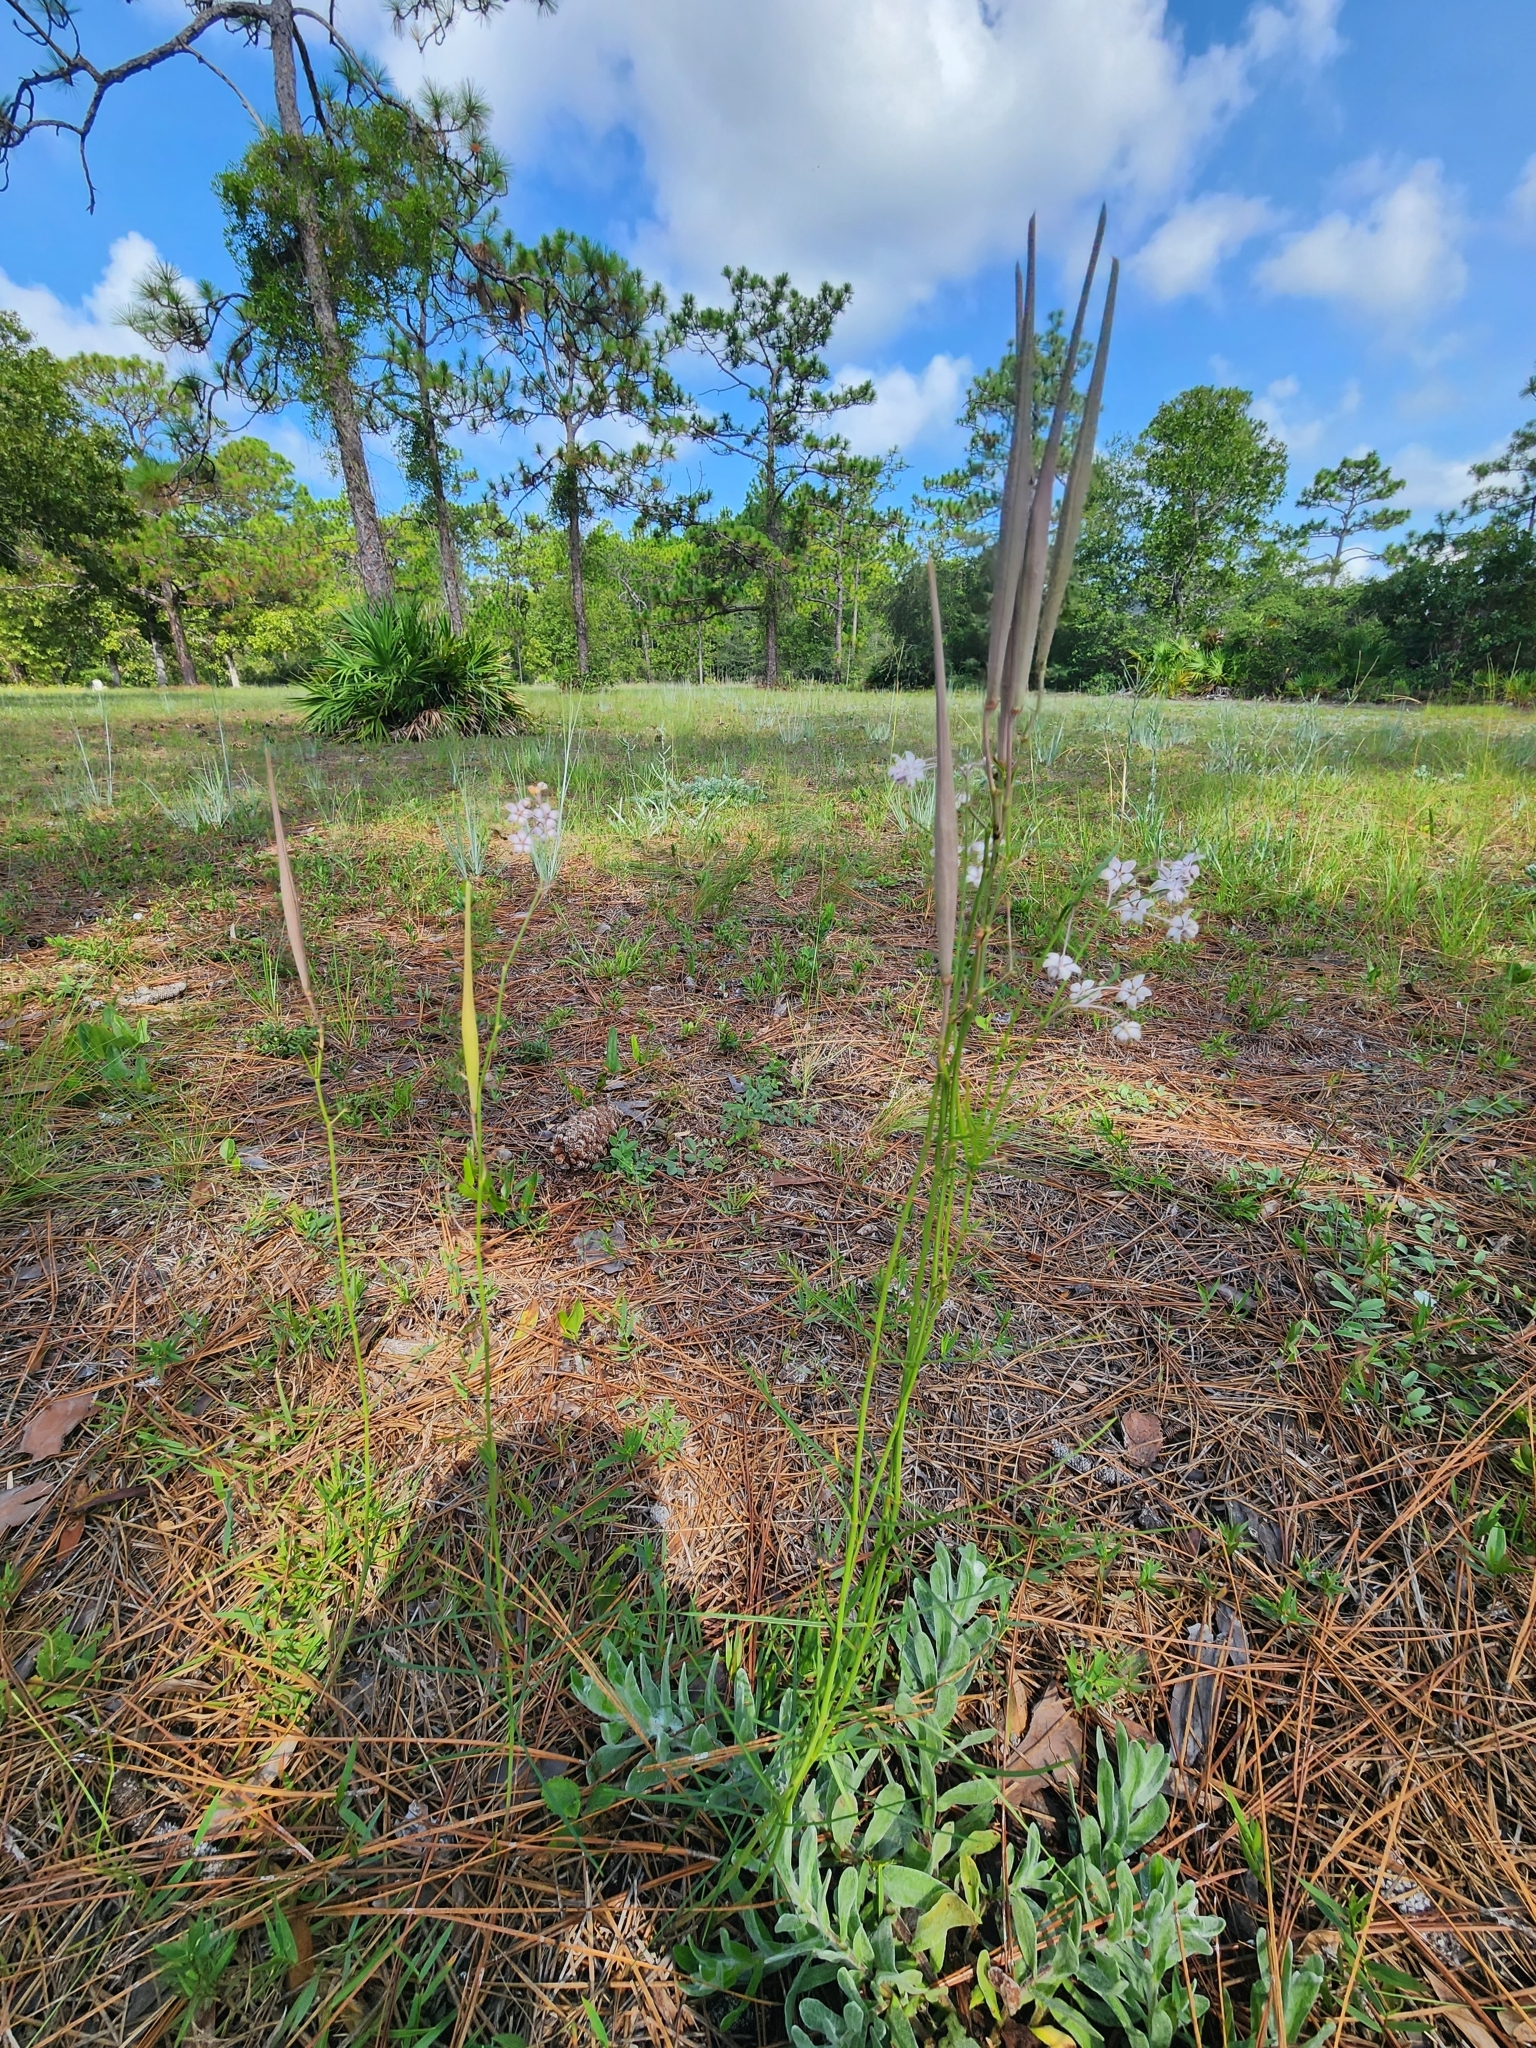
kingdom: Plantae
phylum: Tracheophyta
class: Magnoliopsida
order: Gentianales
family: Apocynaceae
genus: Asclepias
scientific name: Asclepias cinerea
